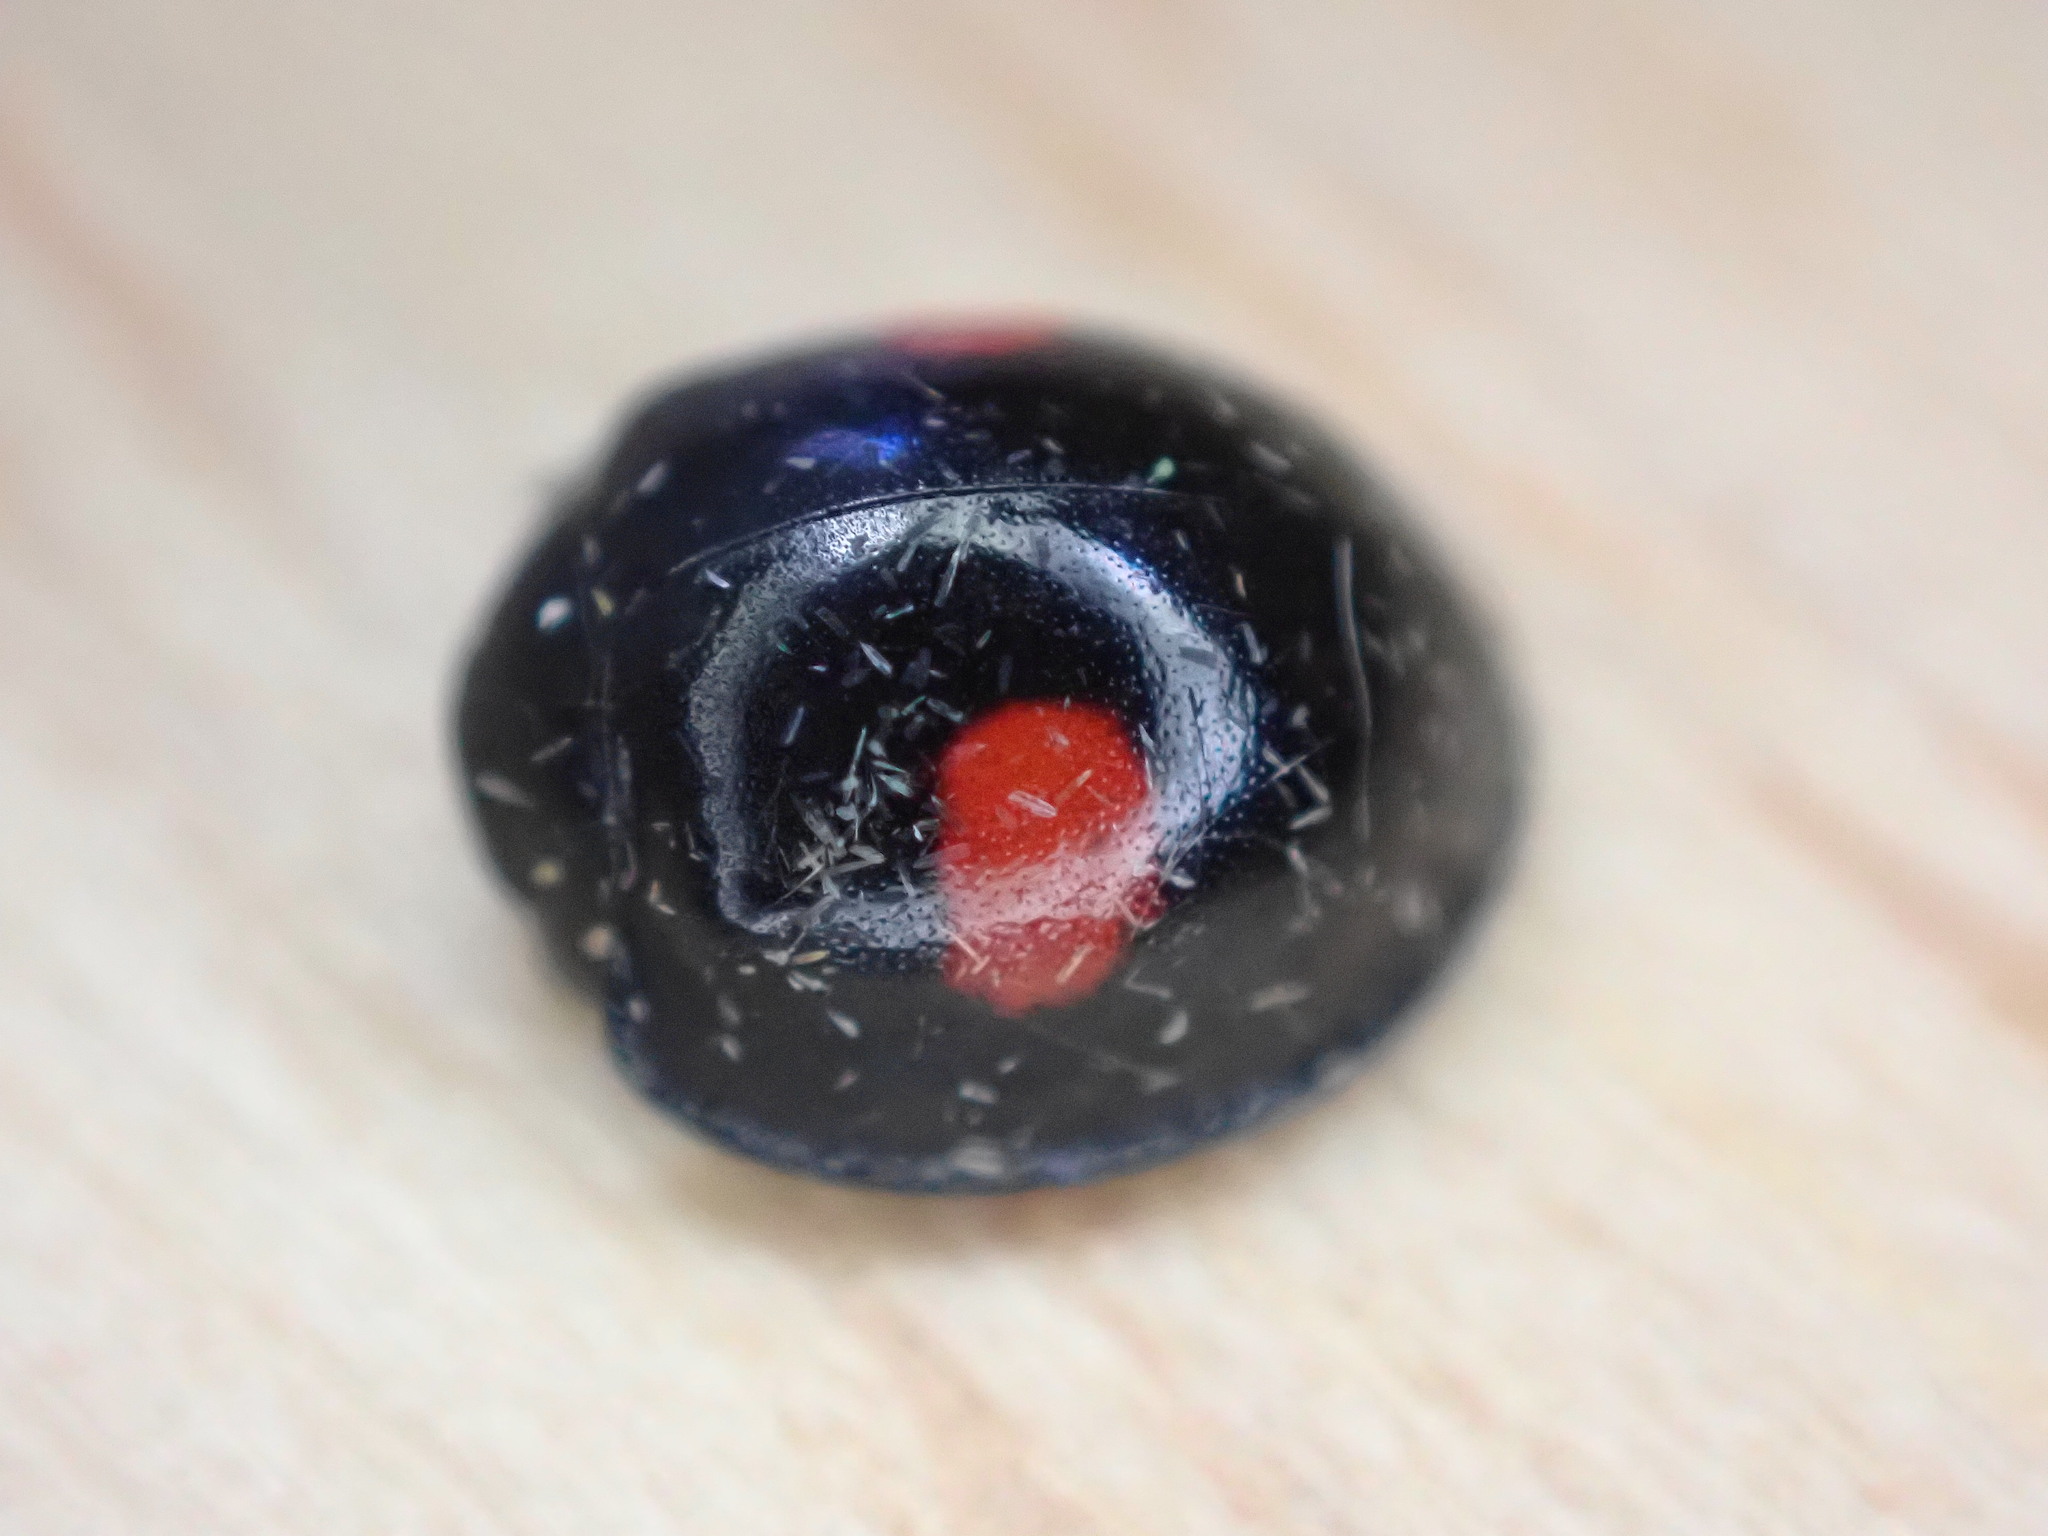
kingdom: Animalia
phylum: Arthropoda
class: Insecta
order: Coleoptera
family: Coccinellidae
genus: Chilocorus
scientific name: Chilocorus renipustulatus
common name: Kidney-spot ladybird
